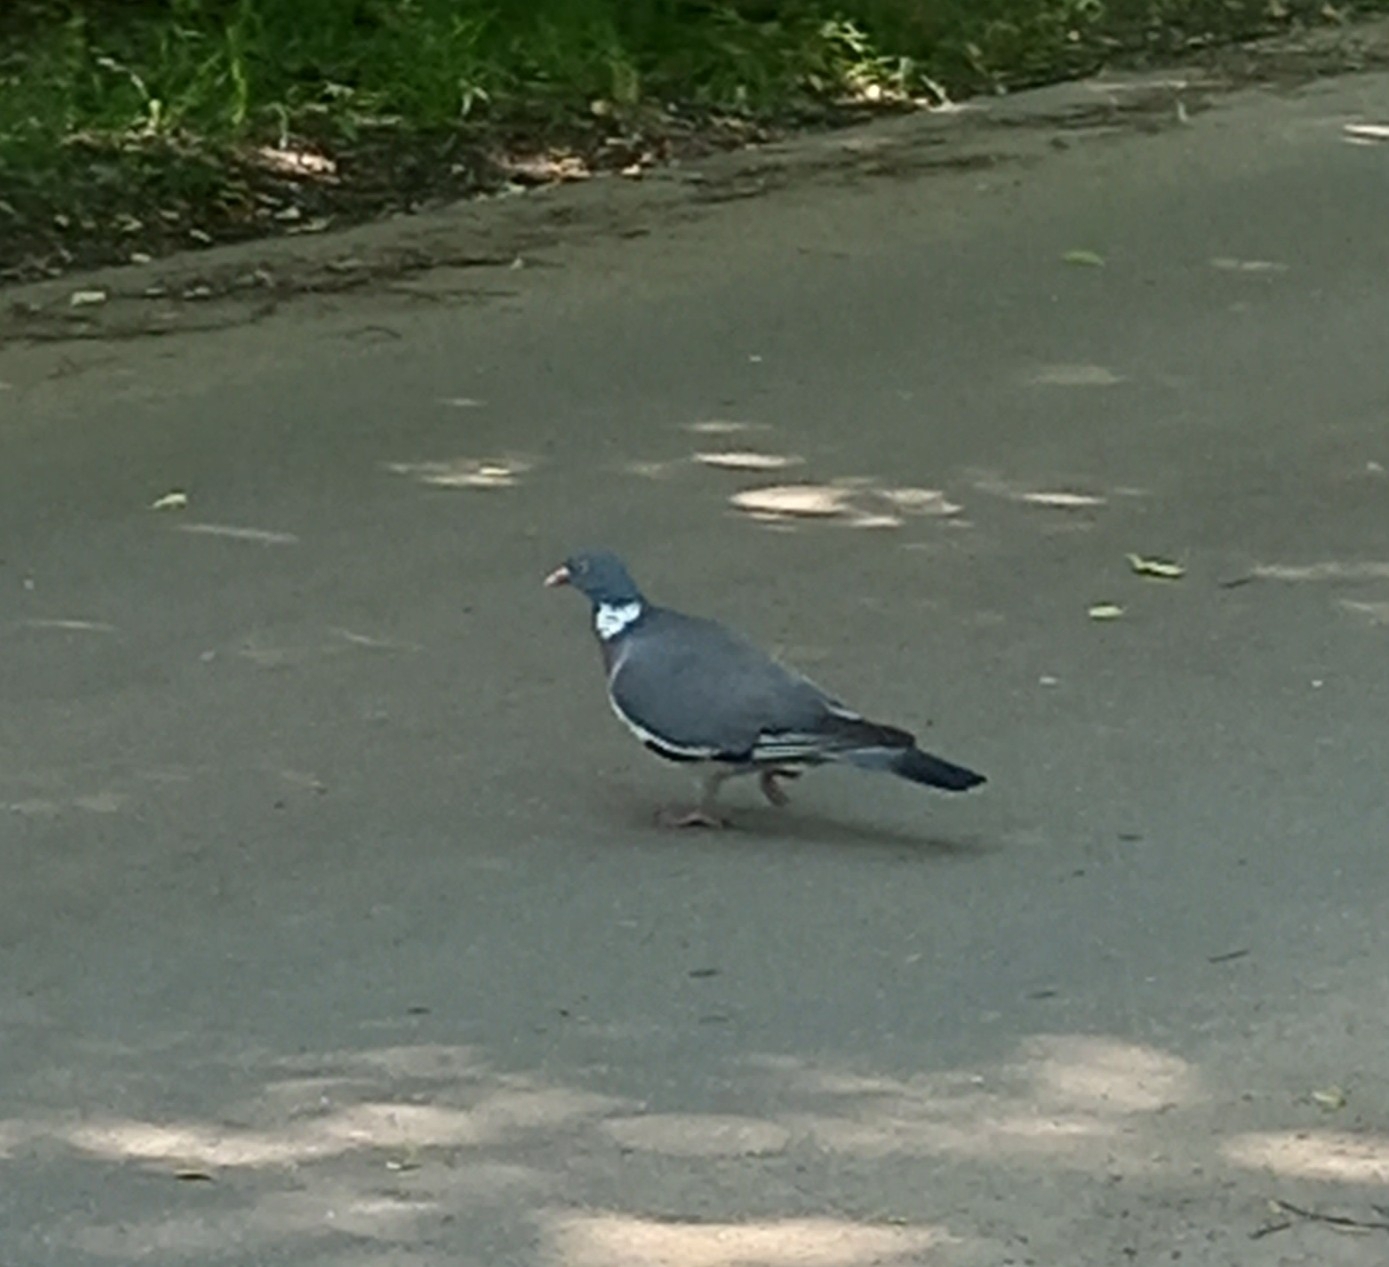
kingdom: Animalia
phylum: Chordata
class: Aves
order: Columbiformes
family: Columbidae
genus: Columba
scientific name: Columba palumbus
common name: Common wood pigeon
